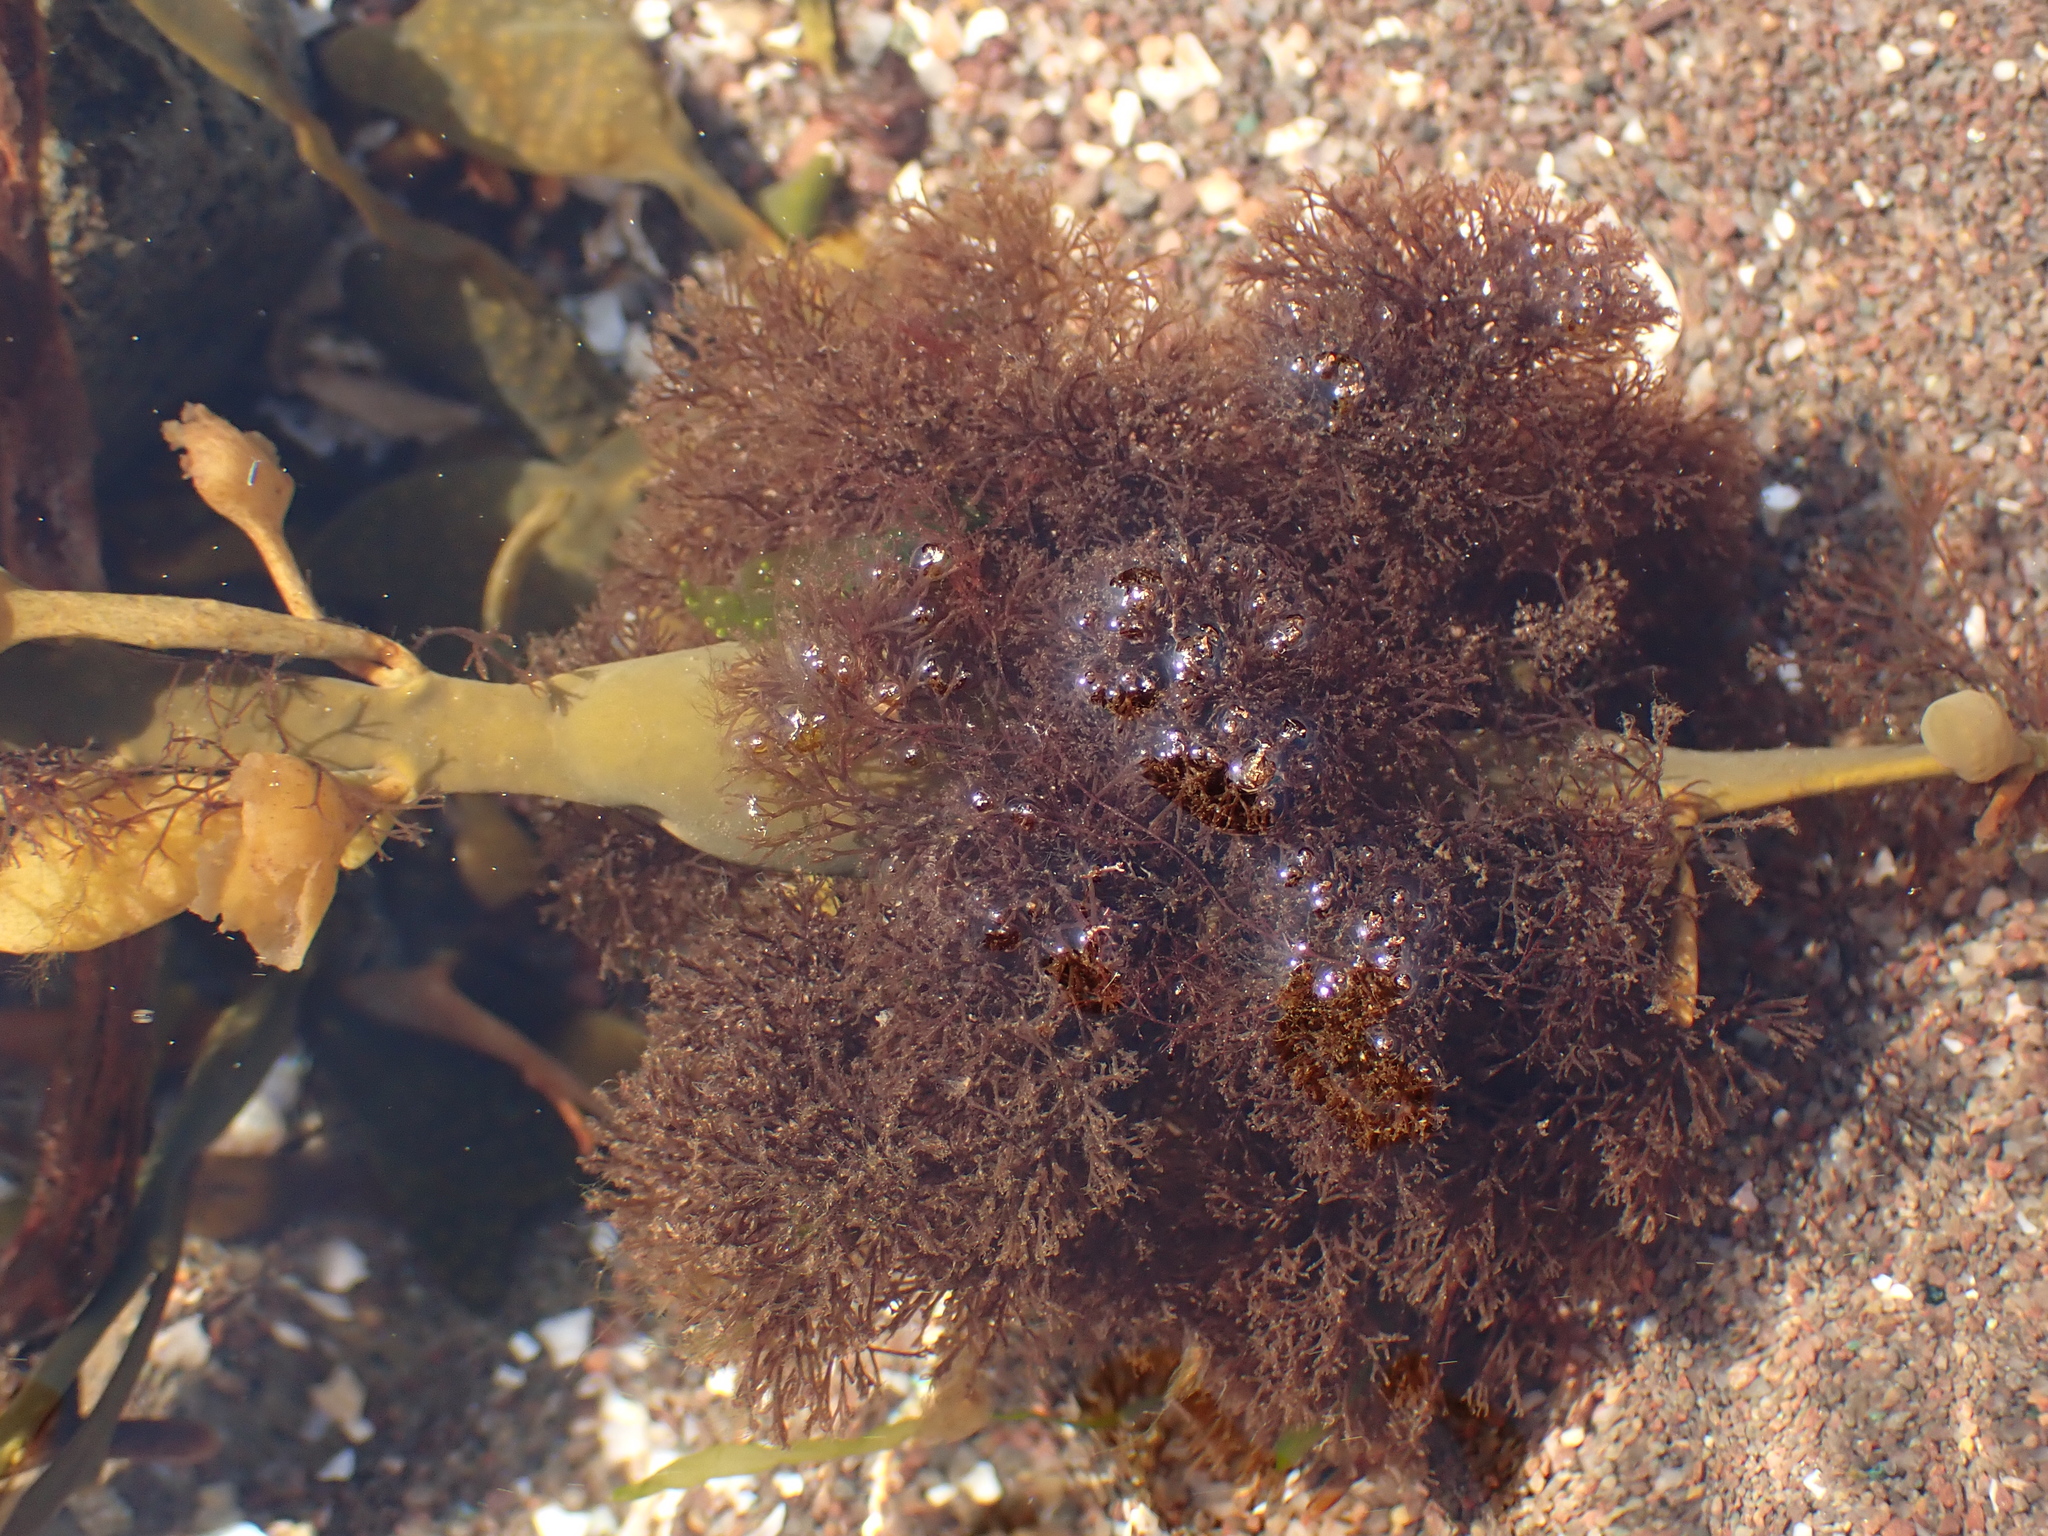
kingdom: Plantae
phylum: Rhodophyta
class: Florideophyceae
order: Ceramiales
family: Rhodomelaceae
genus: Vertebrata
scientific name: Vertebrata lanosa
